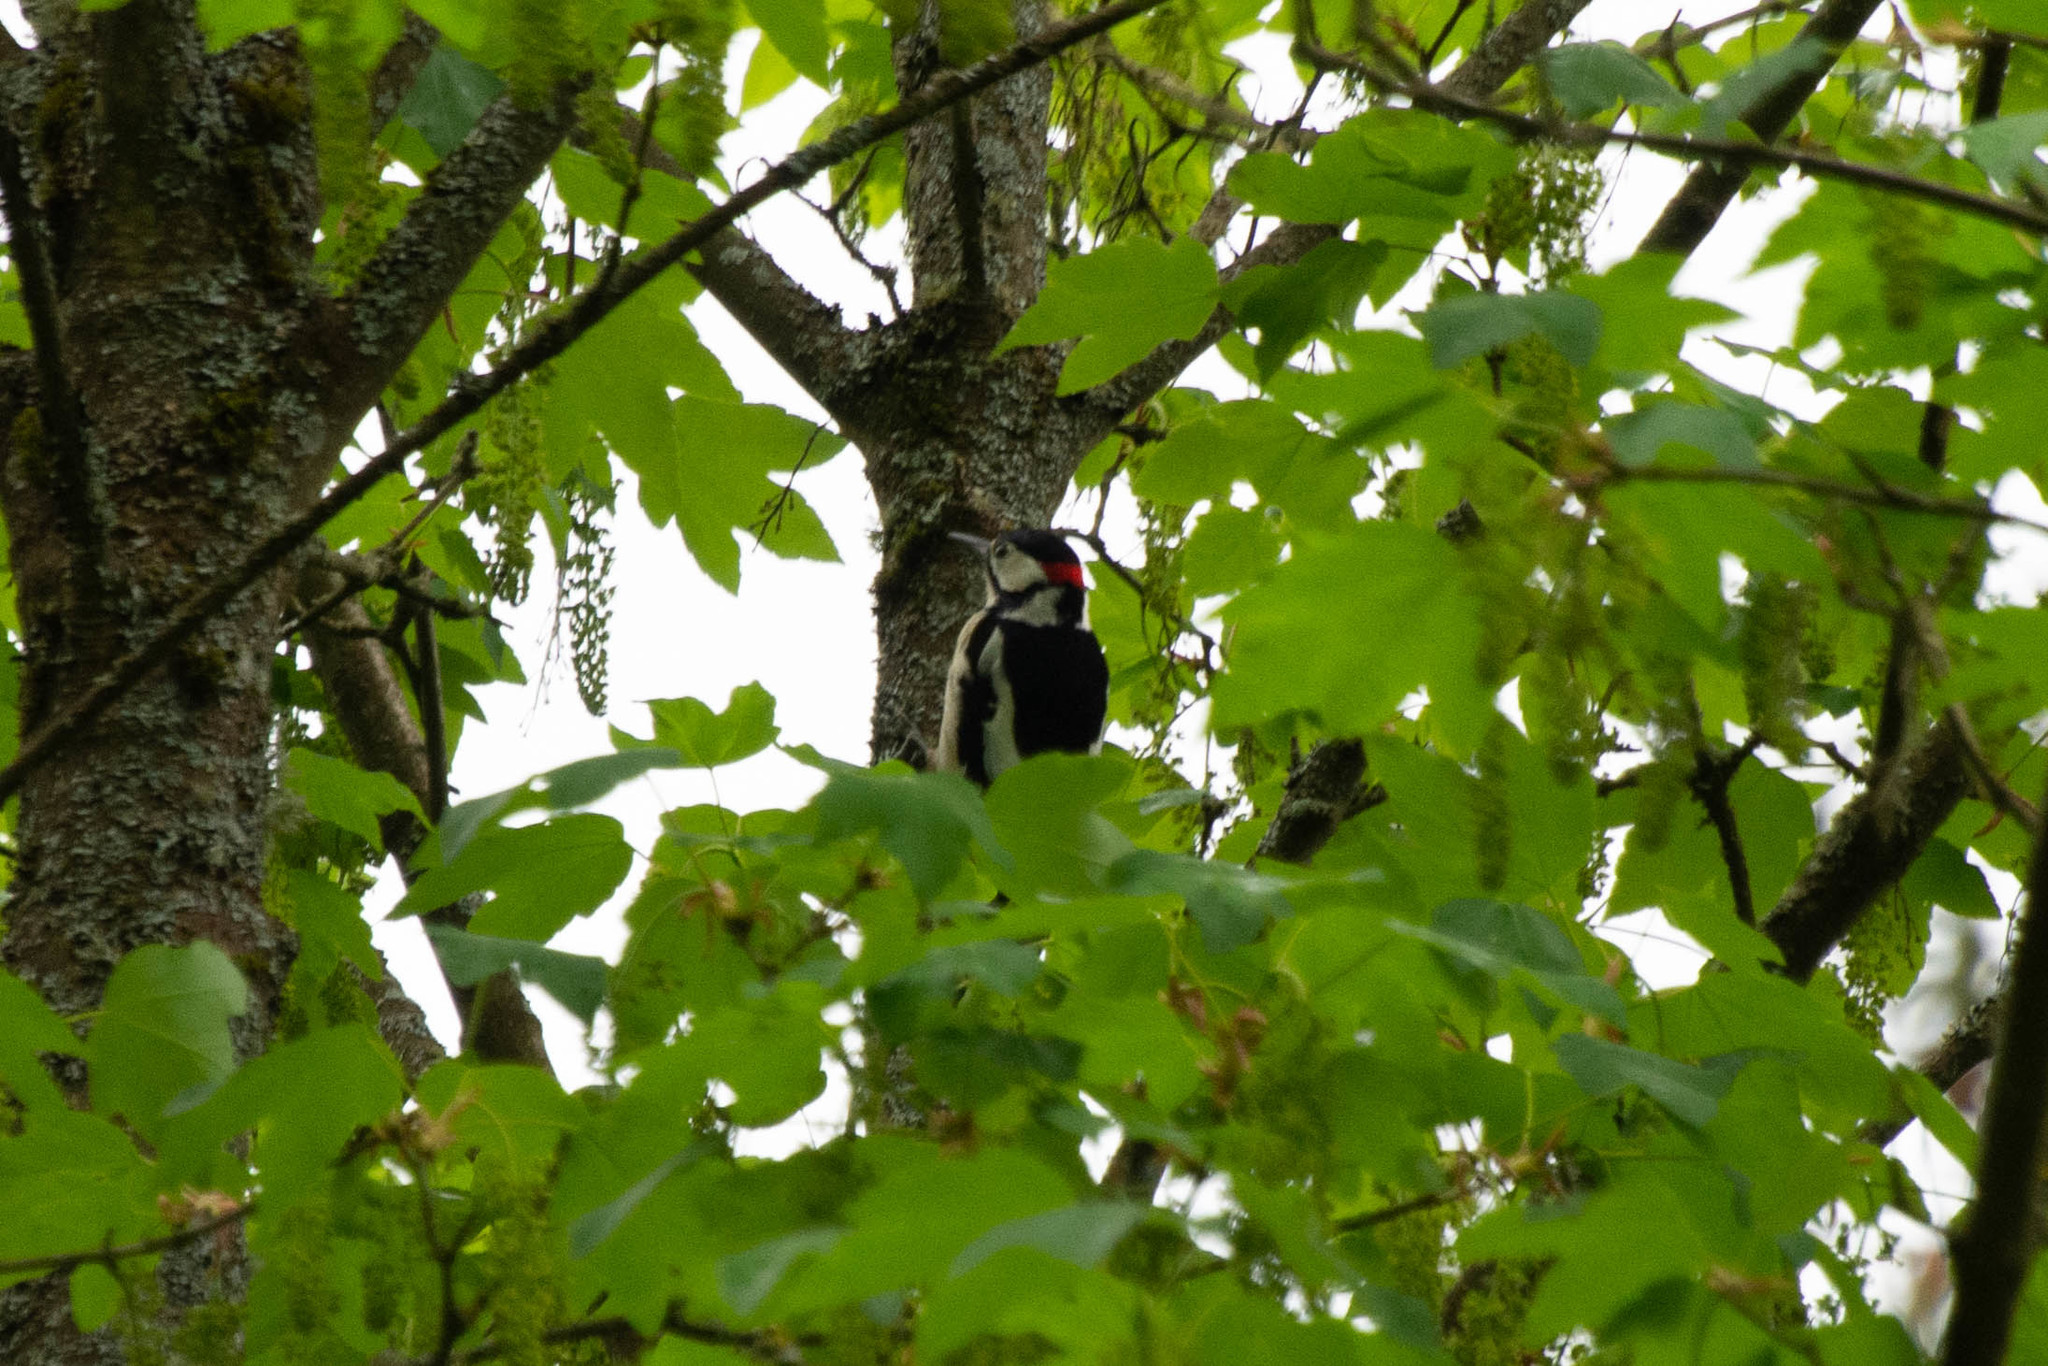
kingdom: Animalia
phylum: Chordata
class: Aves
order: Piciformes
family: Picidae
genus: Dendrocopos
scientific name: Dendrocopos major
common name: Great spotted woodpecker
